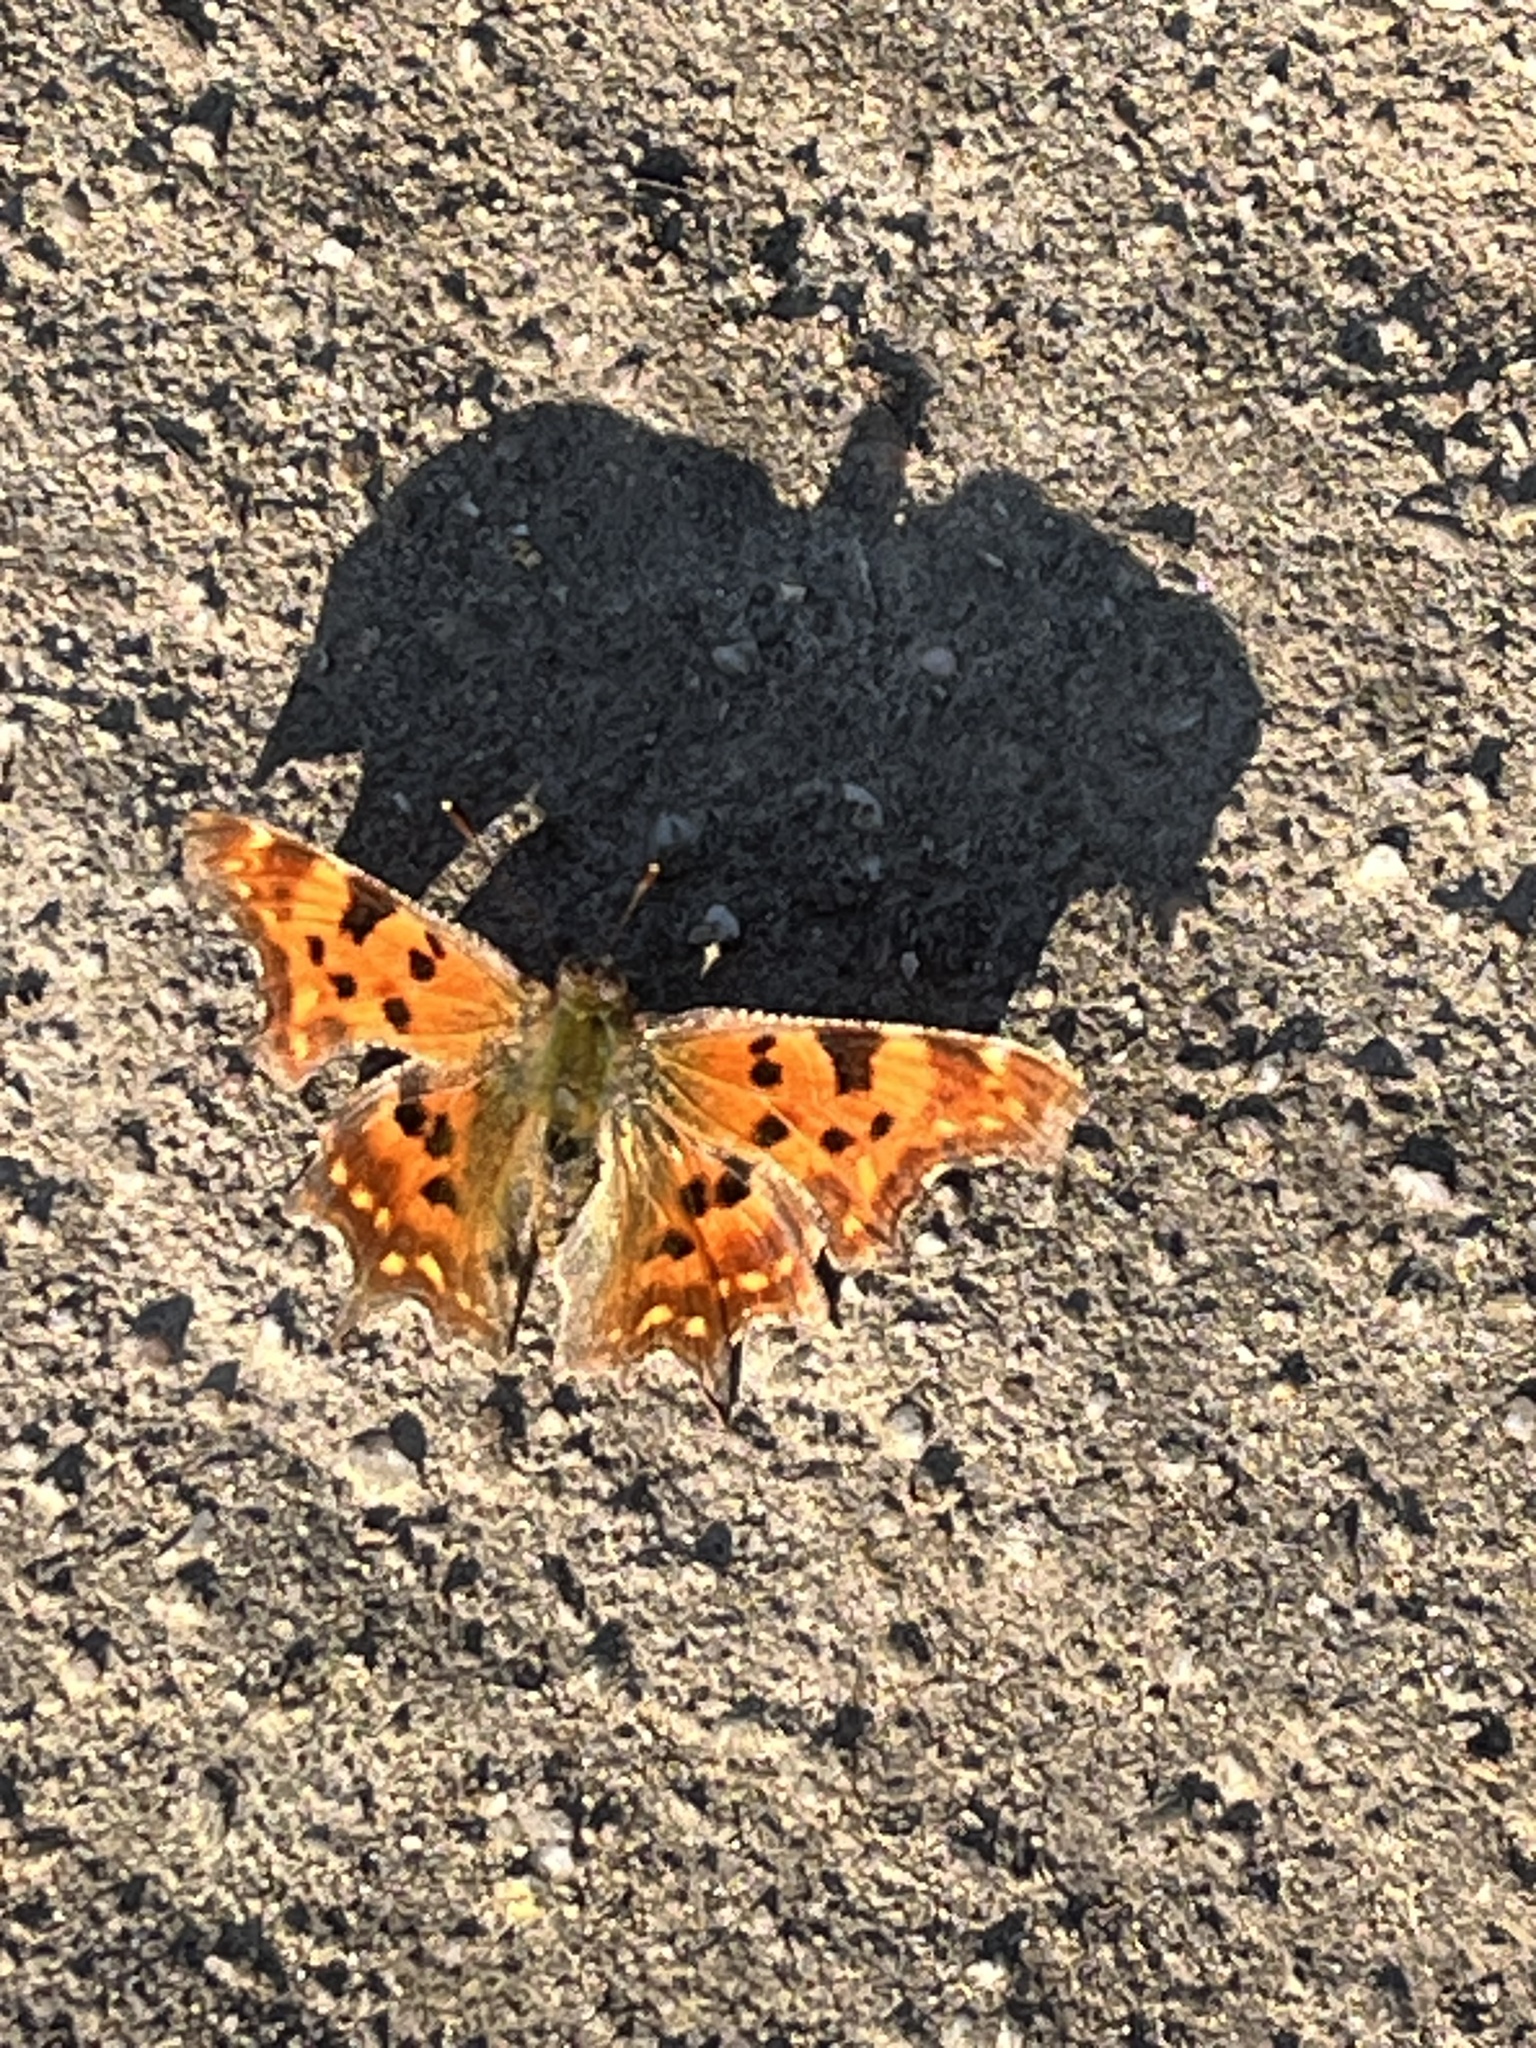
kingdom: Animalia
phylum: Arthropoda
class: Insecta
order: Lepidoptera
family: Nymphalidae
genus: Polygonia
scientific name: Polygonia c-album
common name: Comma
